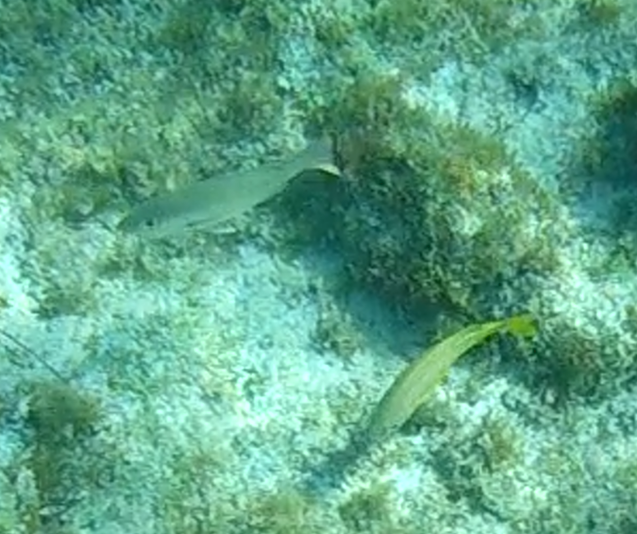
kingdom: Animalia
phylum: Chordata
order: Perciformes
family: Haemulidae
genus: Haemulon
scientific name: Haemulon flavolineatum
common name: French grunt
